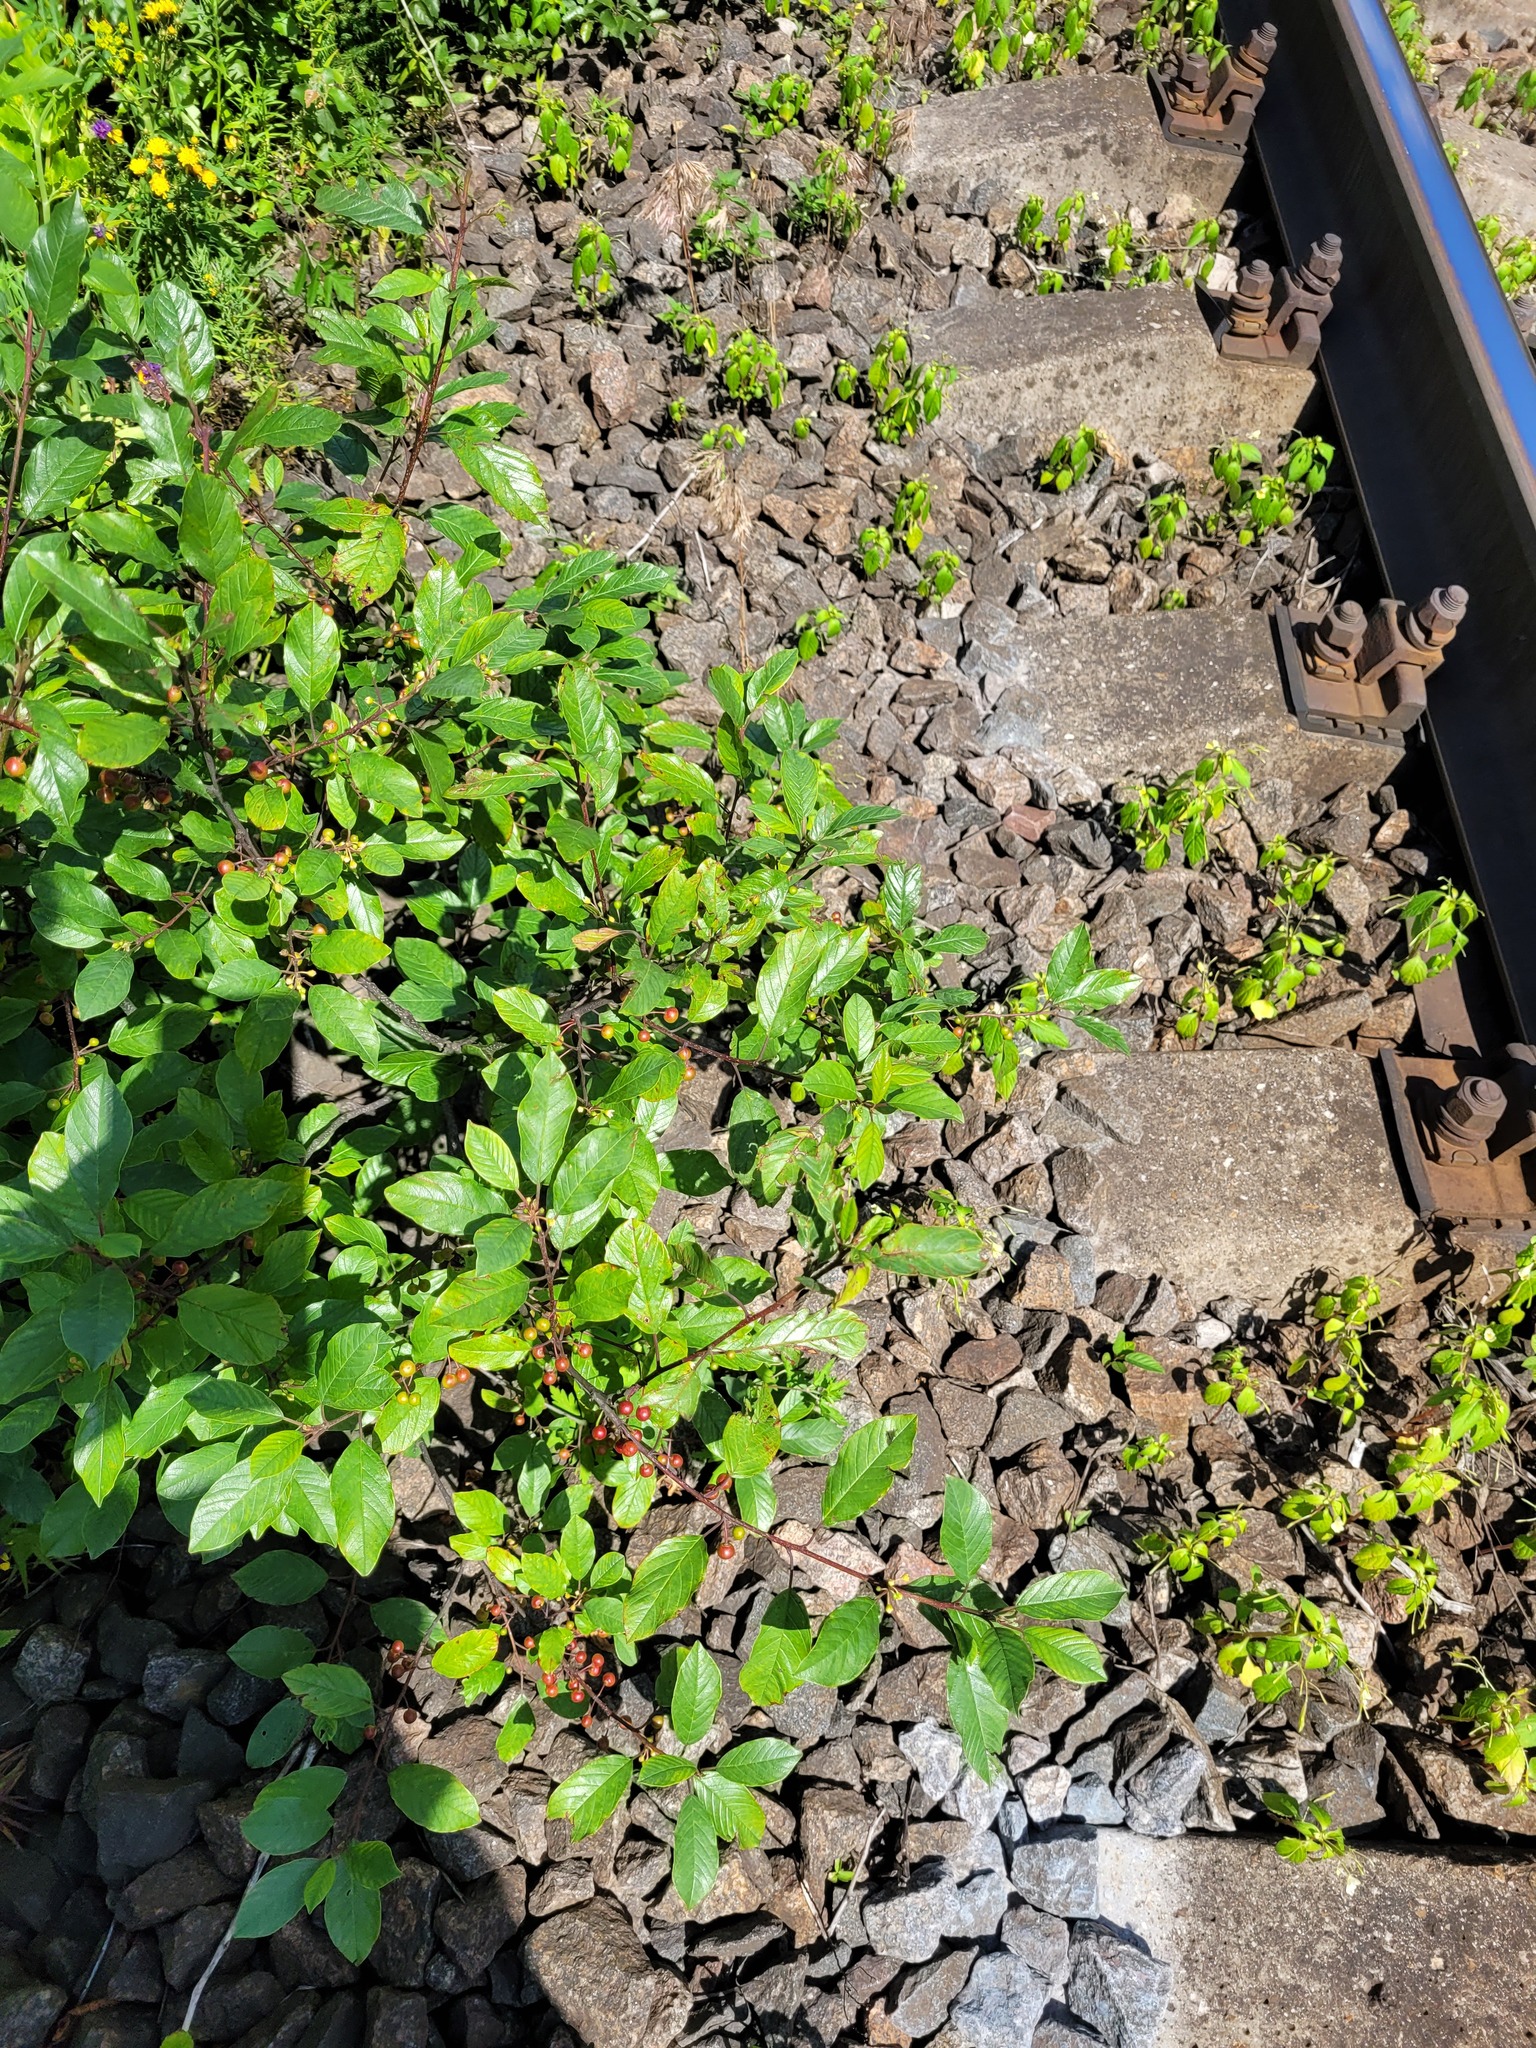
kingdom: Plantae
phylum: Tracheophyta
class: Magnoliopsida
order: Rosales
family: Rhamnaceae
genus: Frangula
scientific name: Frangula alnus
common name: Alder buckthorn
